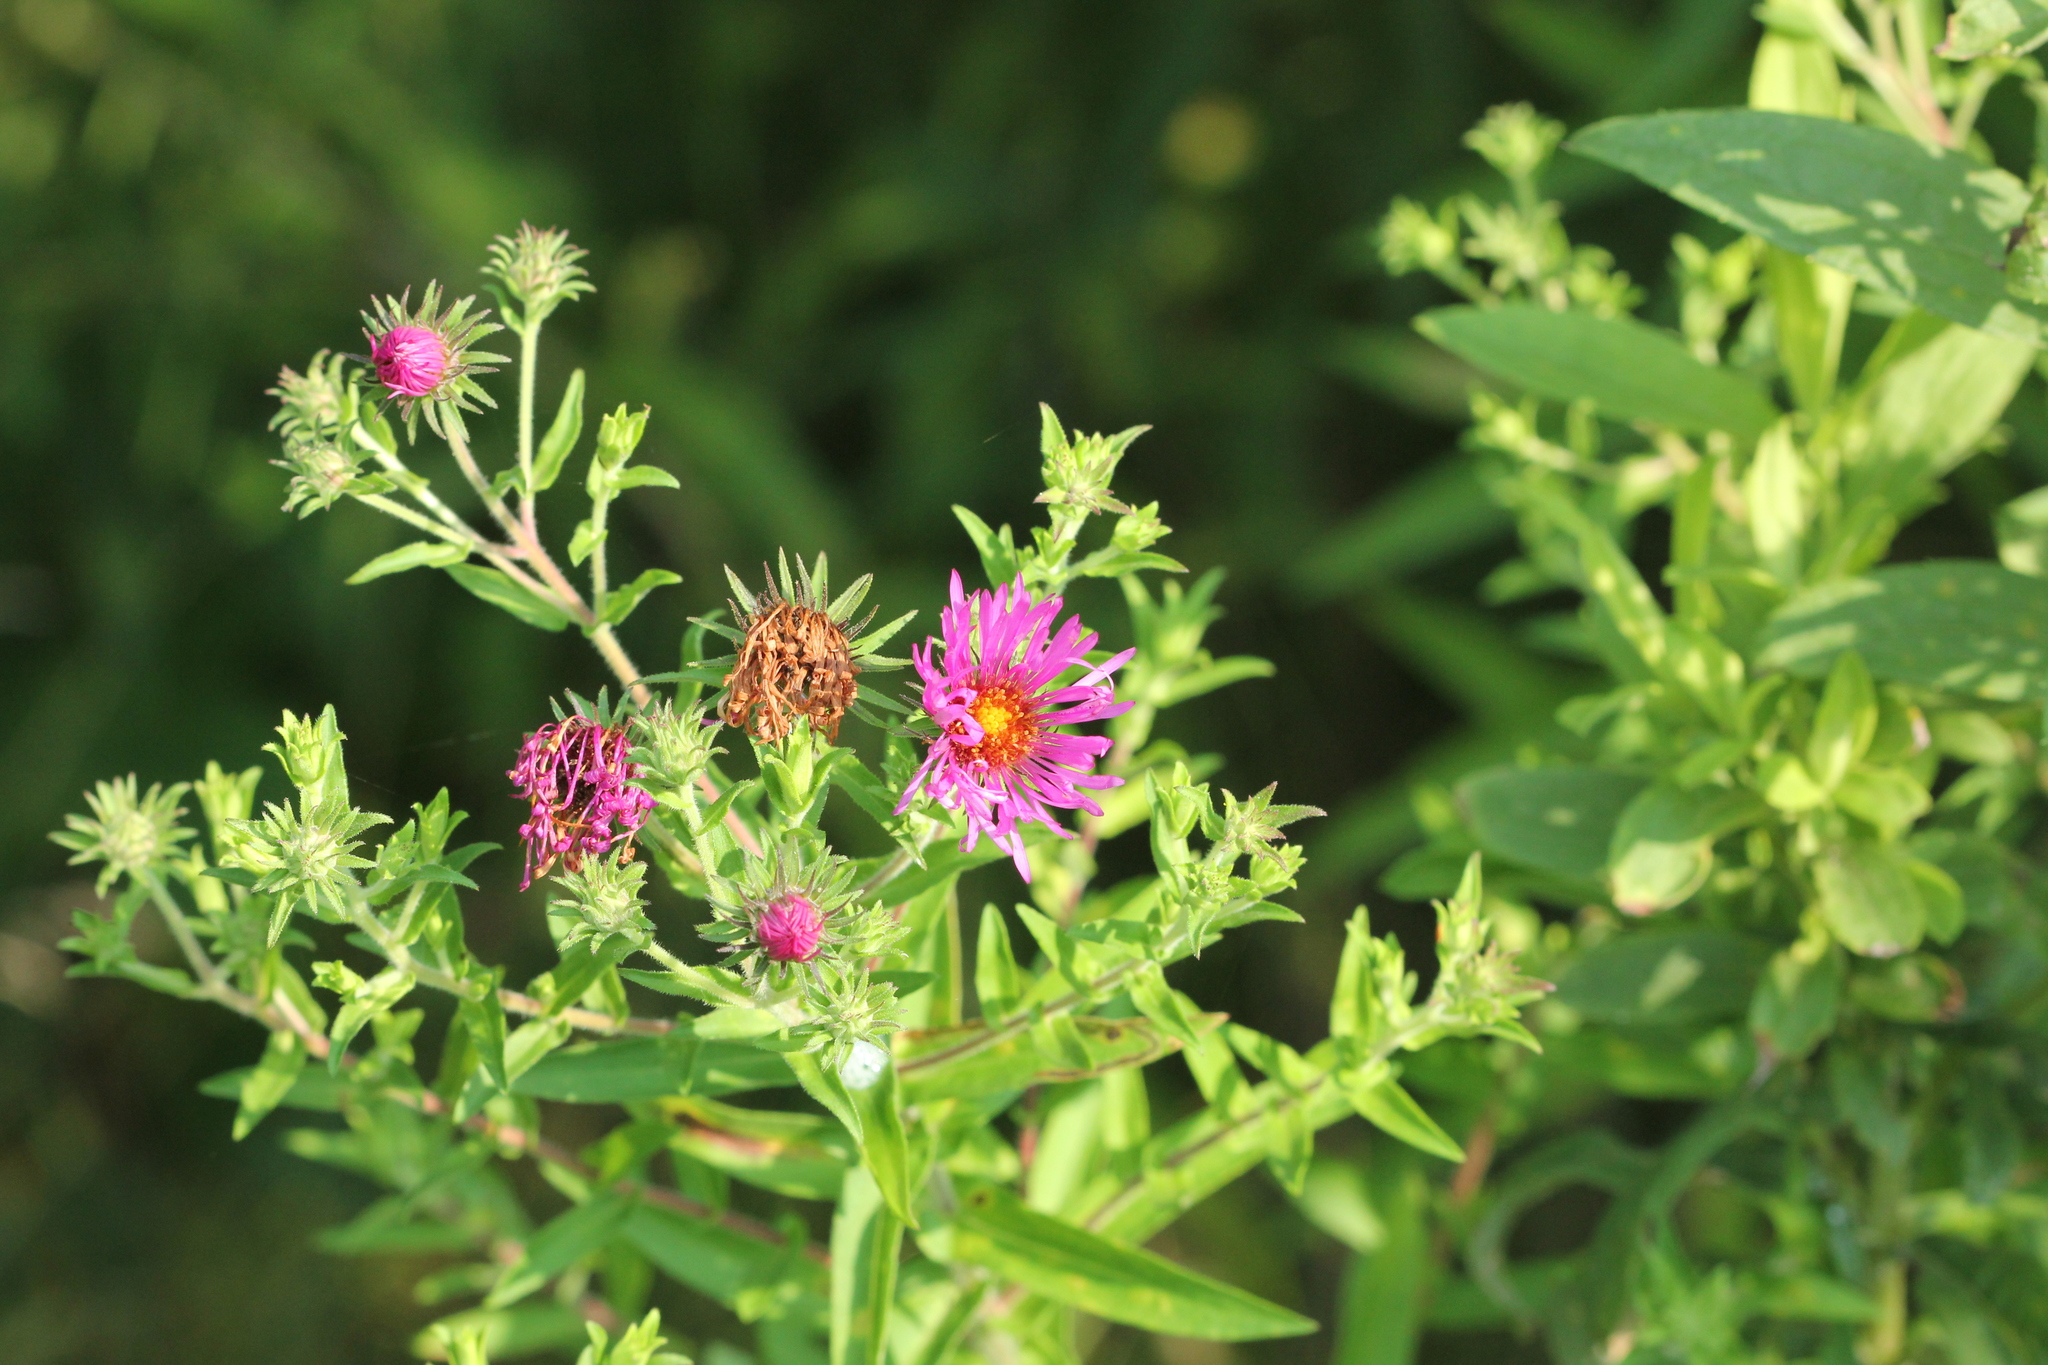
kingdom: Plantae
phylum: Tracheophyta
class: Magnoliopsida
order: Asterales
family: Asteraceae
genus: Symphyotrichum
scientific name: Symphyotrichum novae-angliae
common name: Michaelmas daisy
